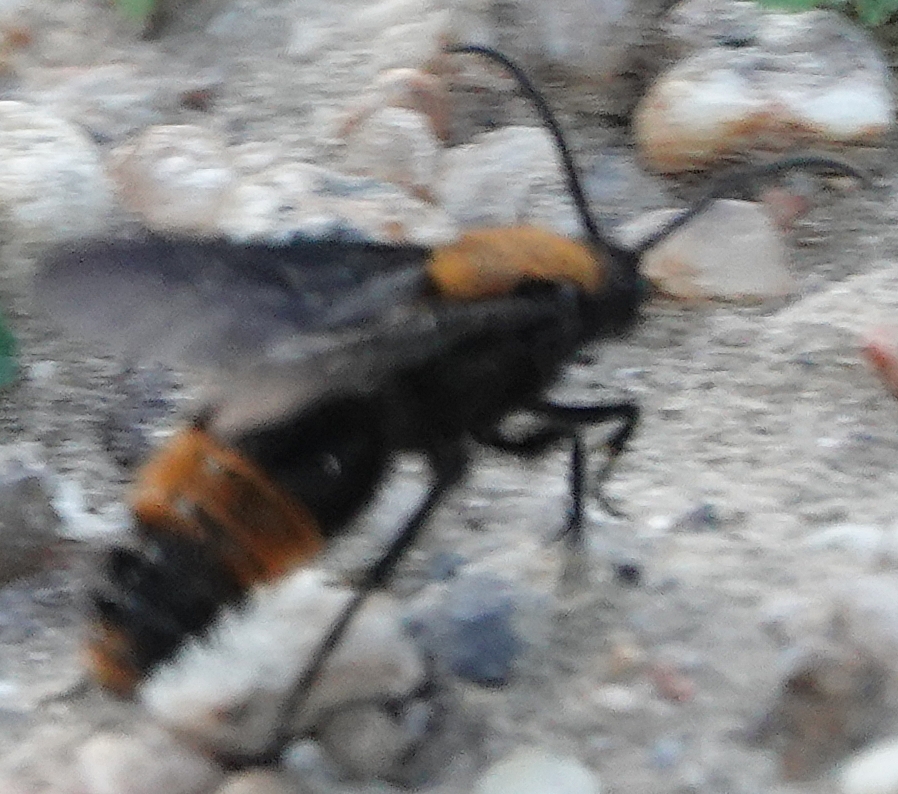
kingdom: Animalia
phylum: Arthropoda
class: Insecta
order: Hymenoptera
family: Mutillidae
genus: Dasymutilla
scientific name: Dasymutilla occidentalis
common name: Common eastern velvet ant
